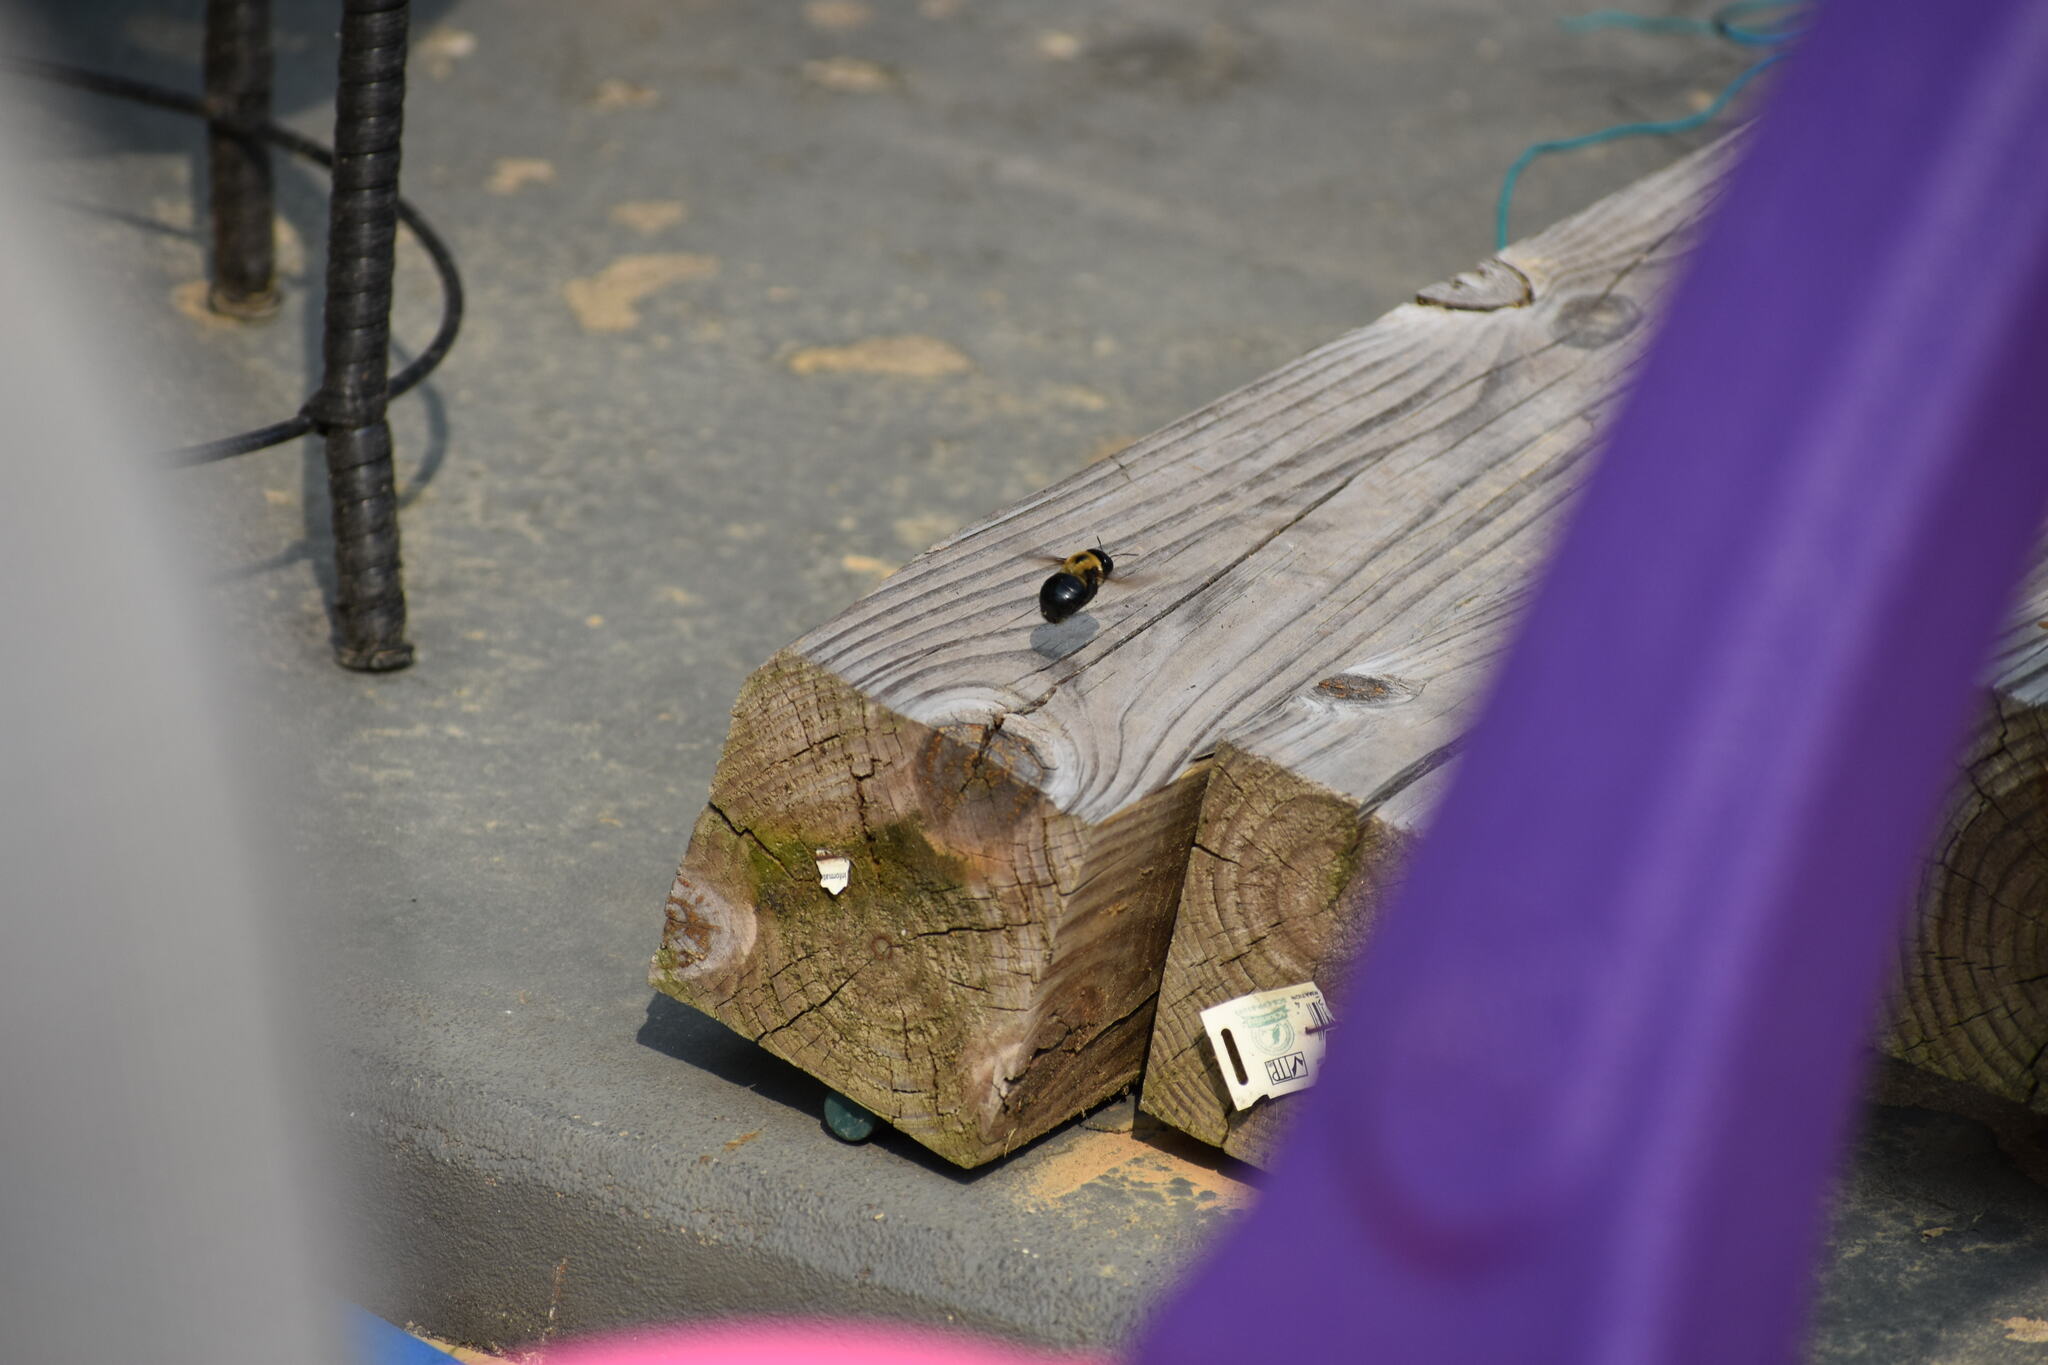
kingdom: Animalia
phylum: Arthropoda
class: Insecta
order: Hymenoptera
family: Apidae
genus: Xylocopa
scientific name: Xylocopa virginica
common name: Carpenter bee
